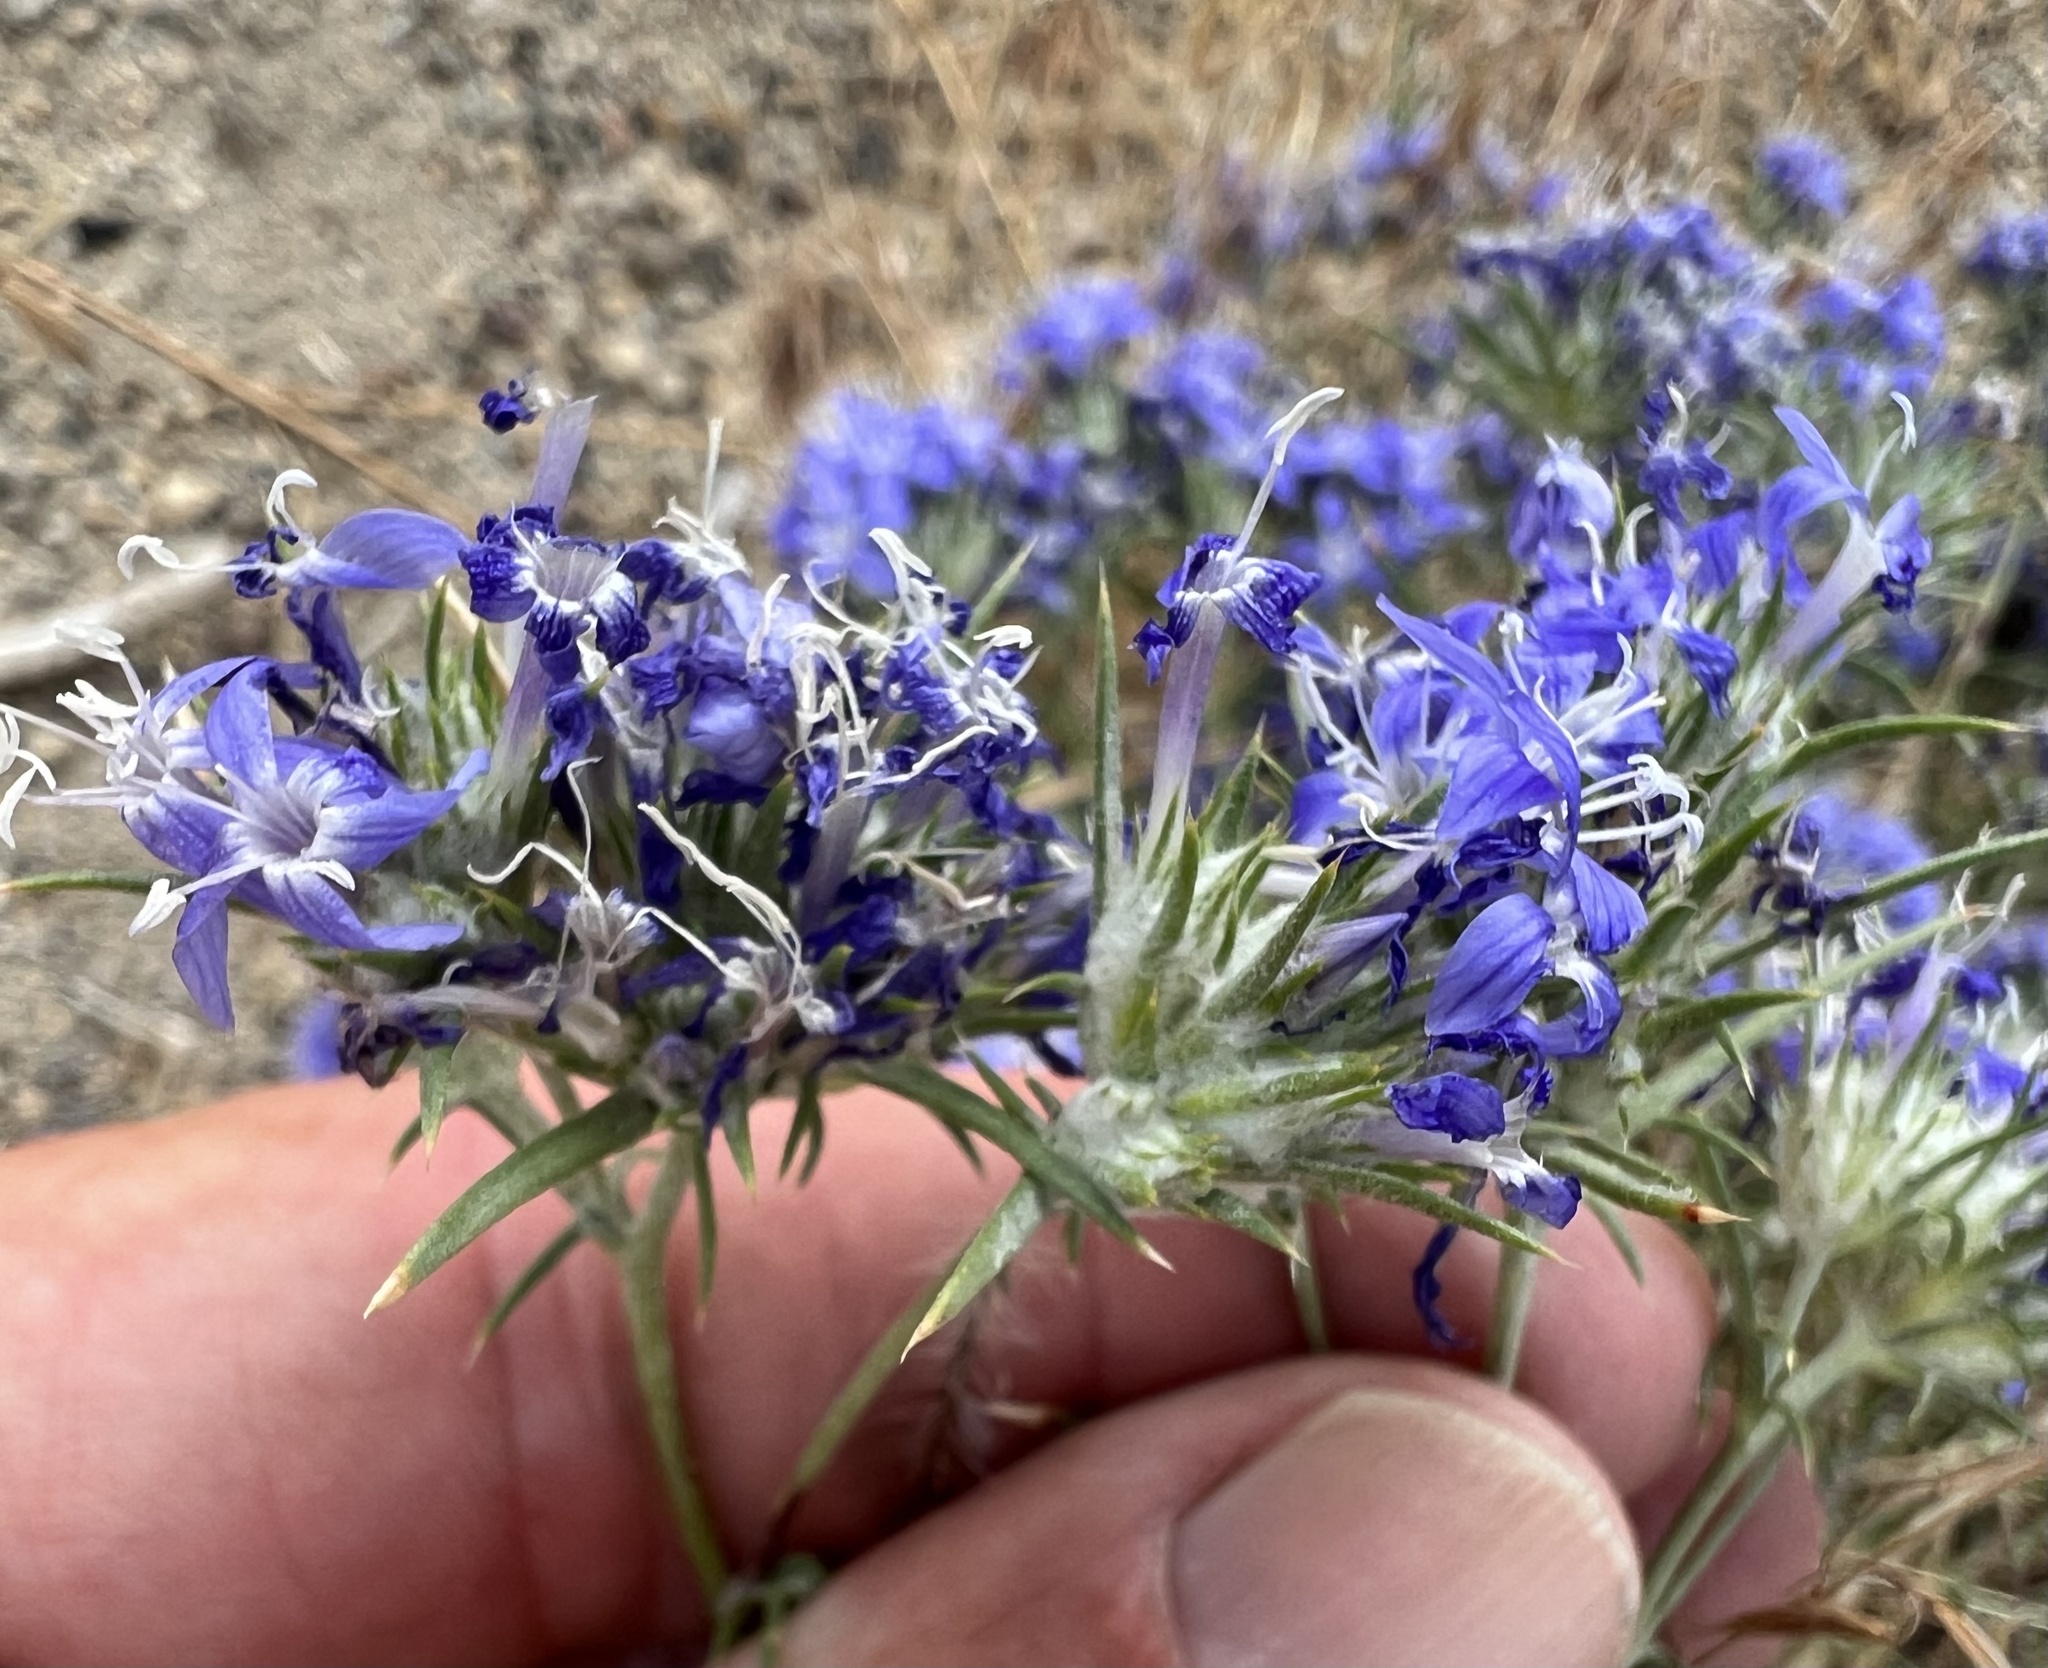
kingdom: Plantae
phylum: Tracheophyta
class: Magnoliopsida
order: Ericales
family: Polemoniaceae
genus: Eriastrum
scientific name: Eriastrum densifolium
